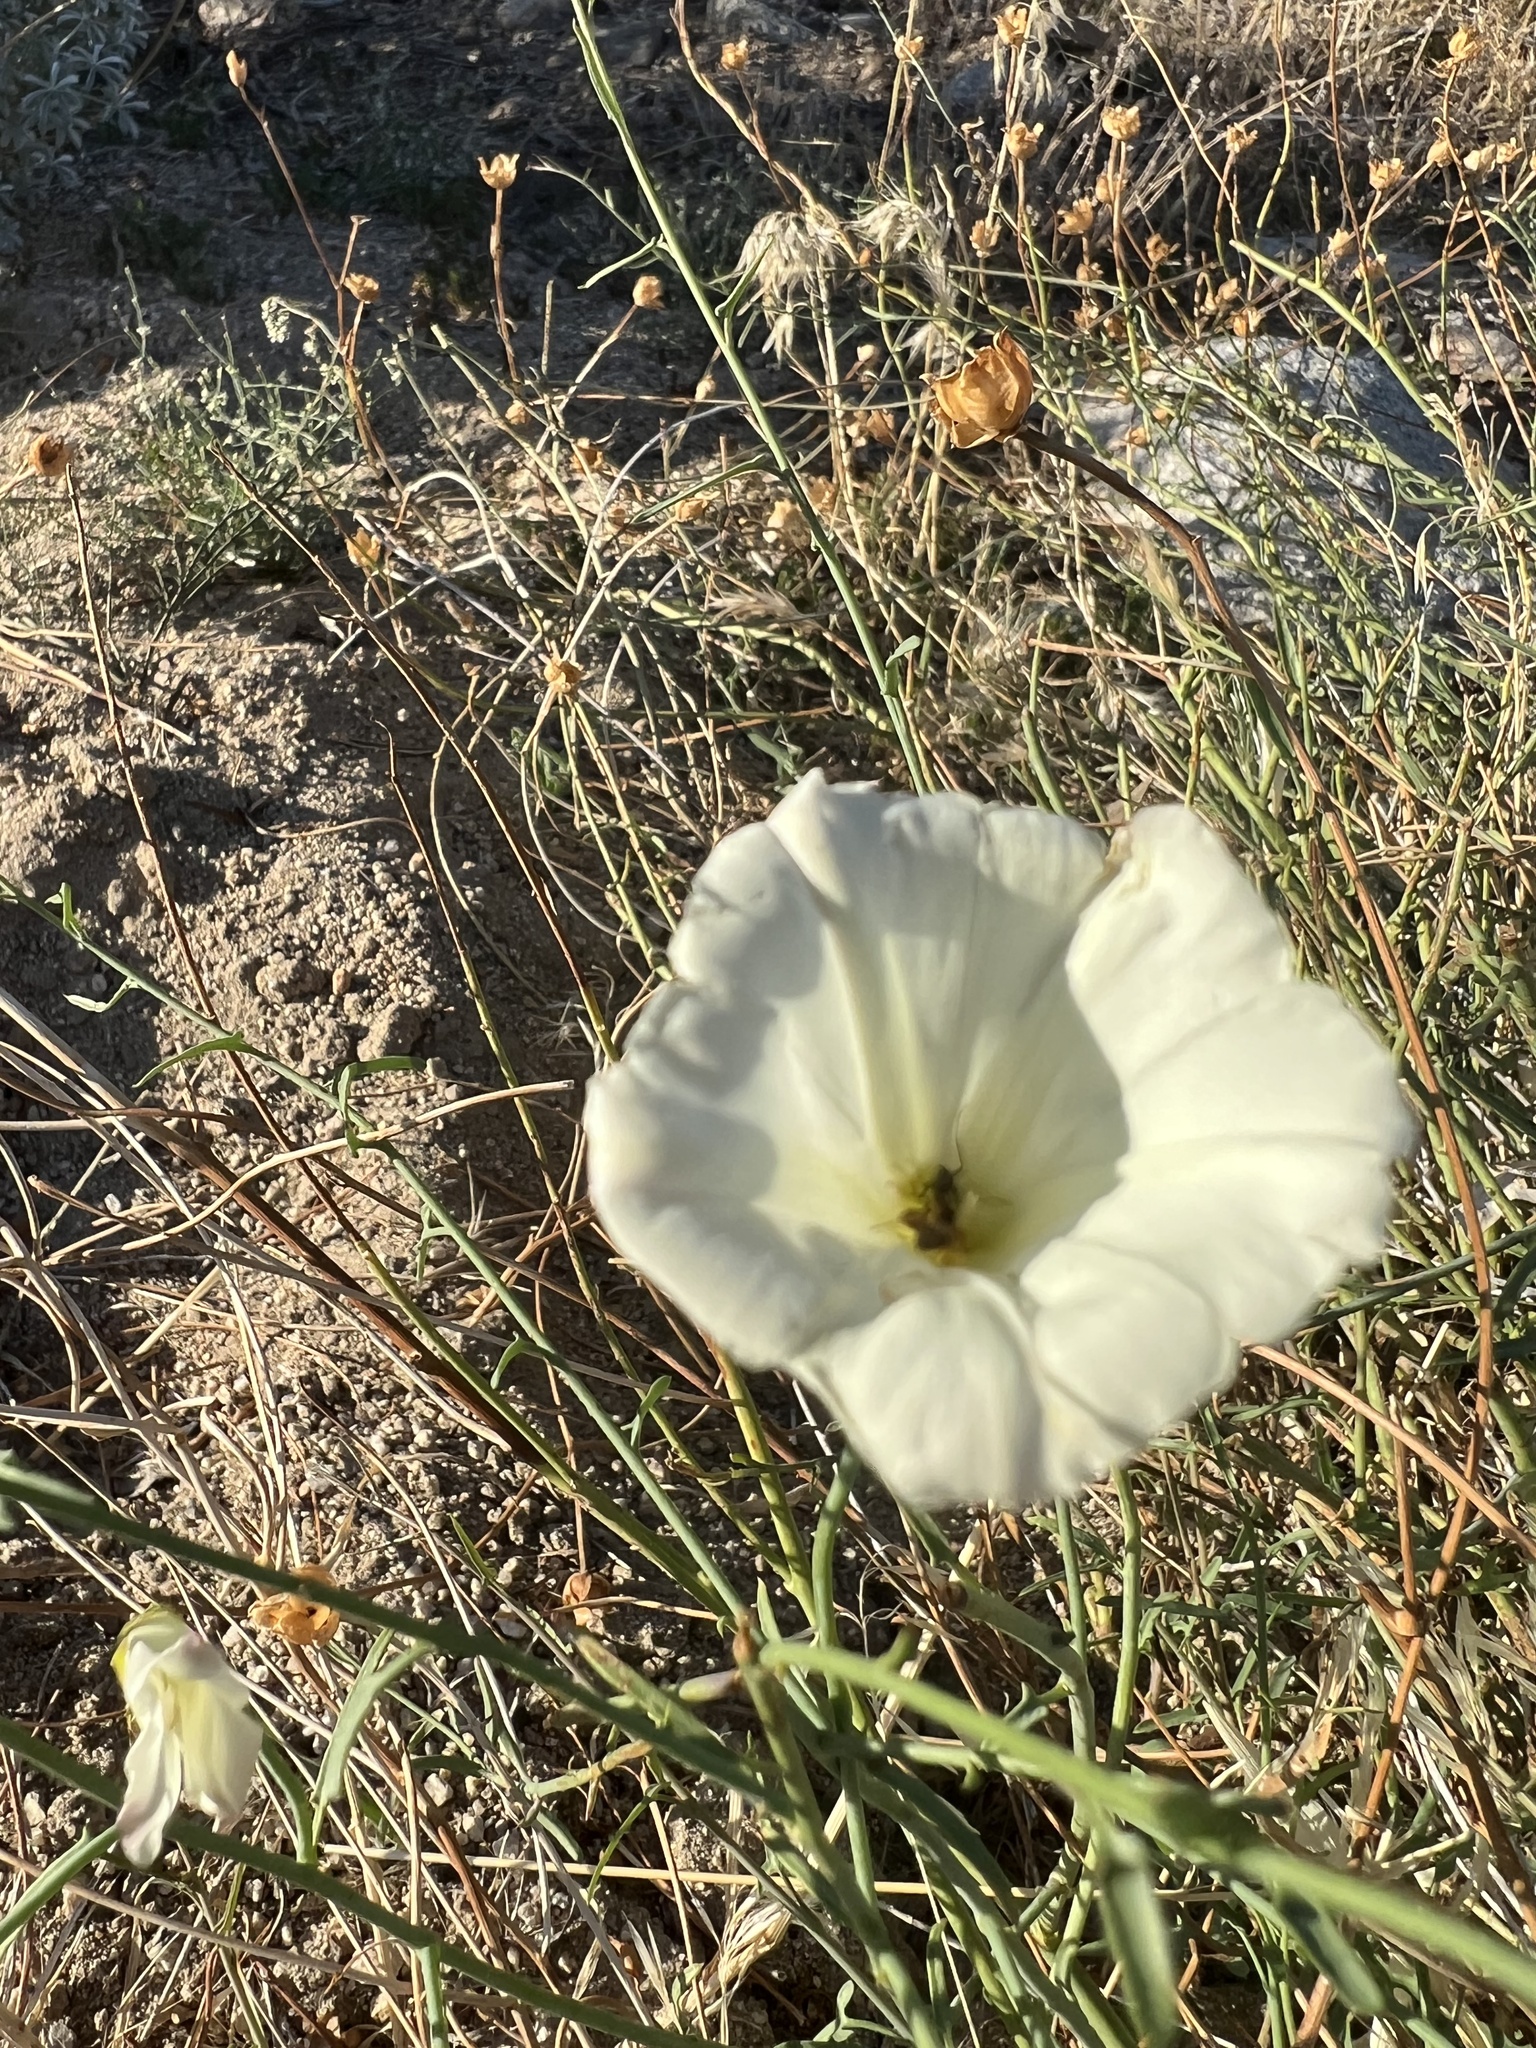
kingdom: Plantae
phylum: Tracheophyta
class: Magnoliopsida
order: Solanales
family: Convolvulaceae
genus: Calystegia
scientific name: Calystegia longipes
